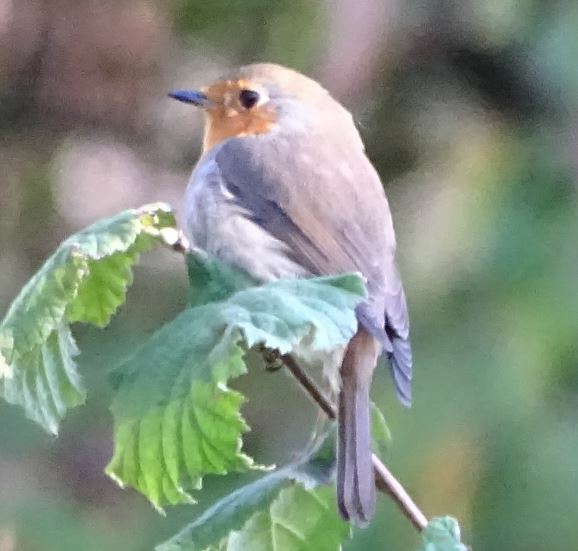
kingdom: Animalia
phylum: Chordata
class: Aves
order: Passeriformes
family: Muscicapidae
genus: Erithacus
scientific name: Erithacus rubecula
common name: European robin
